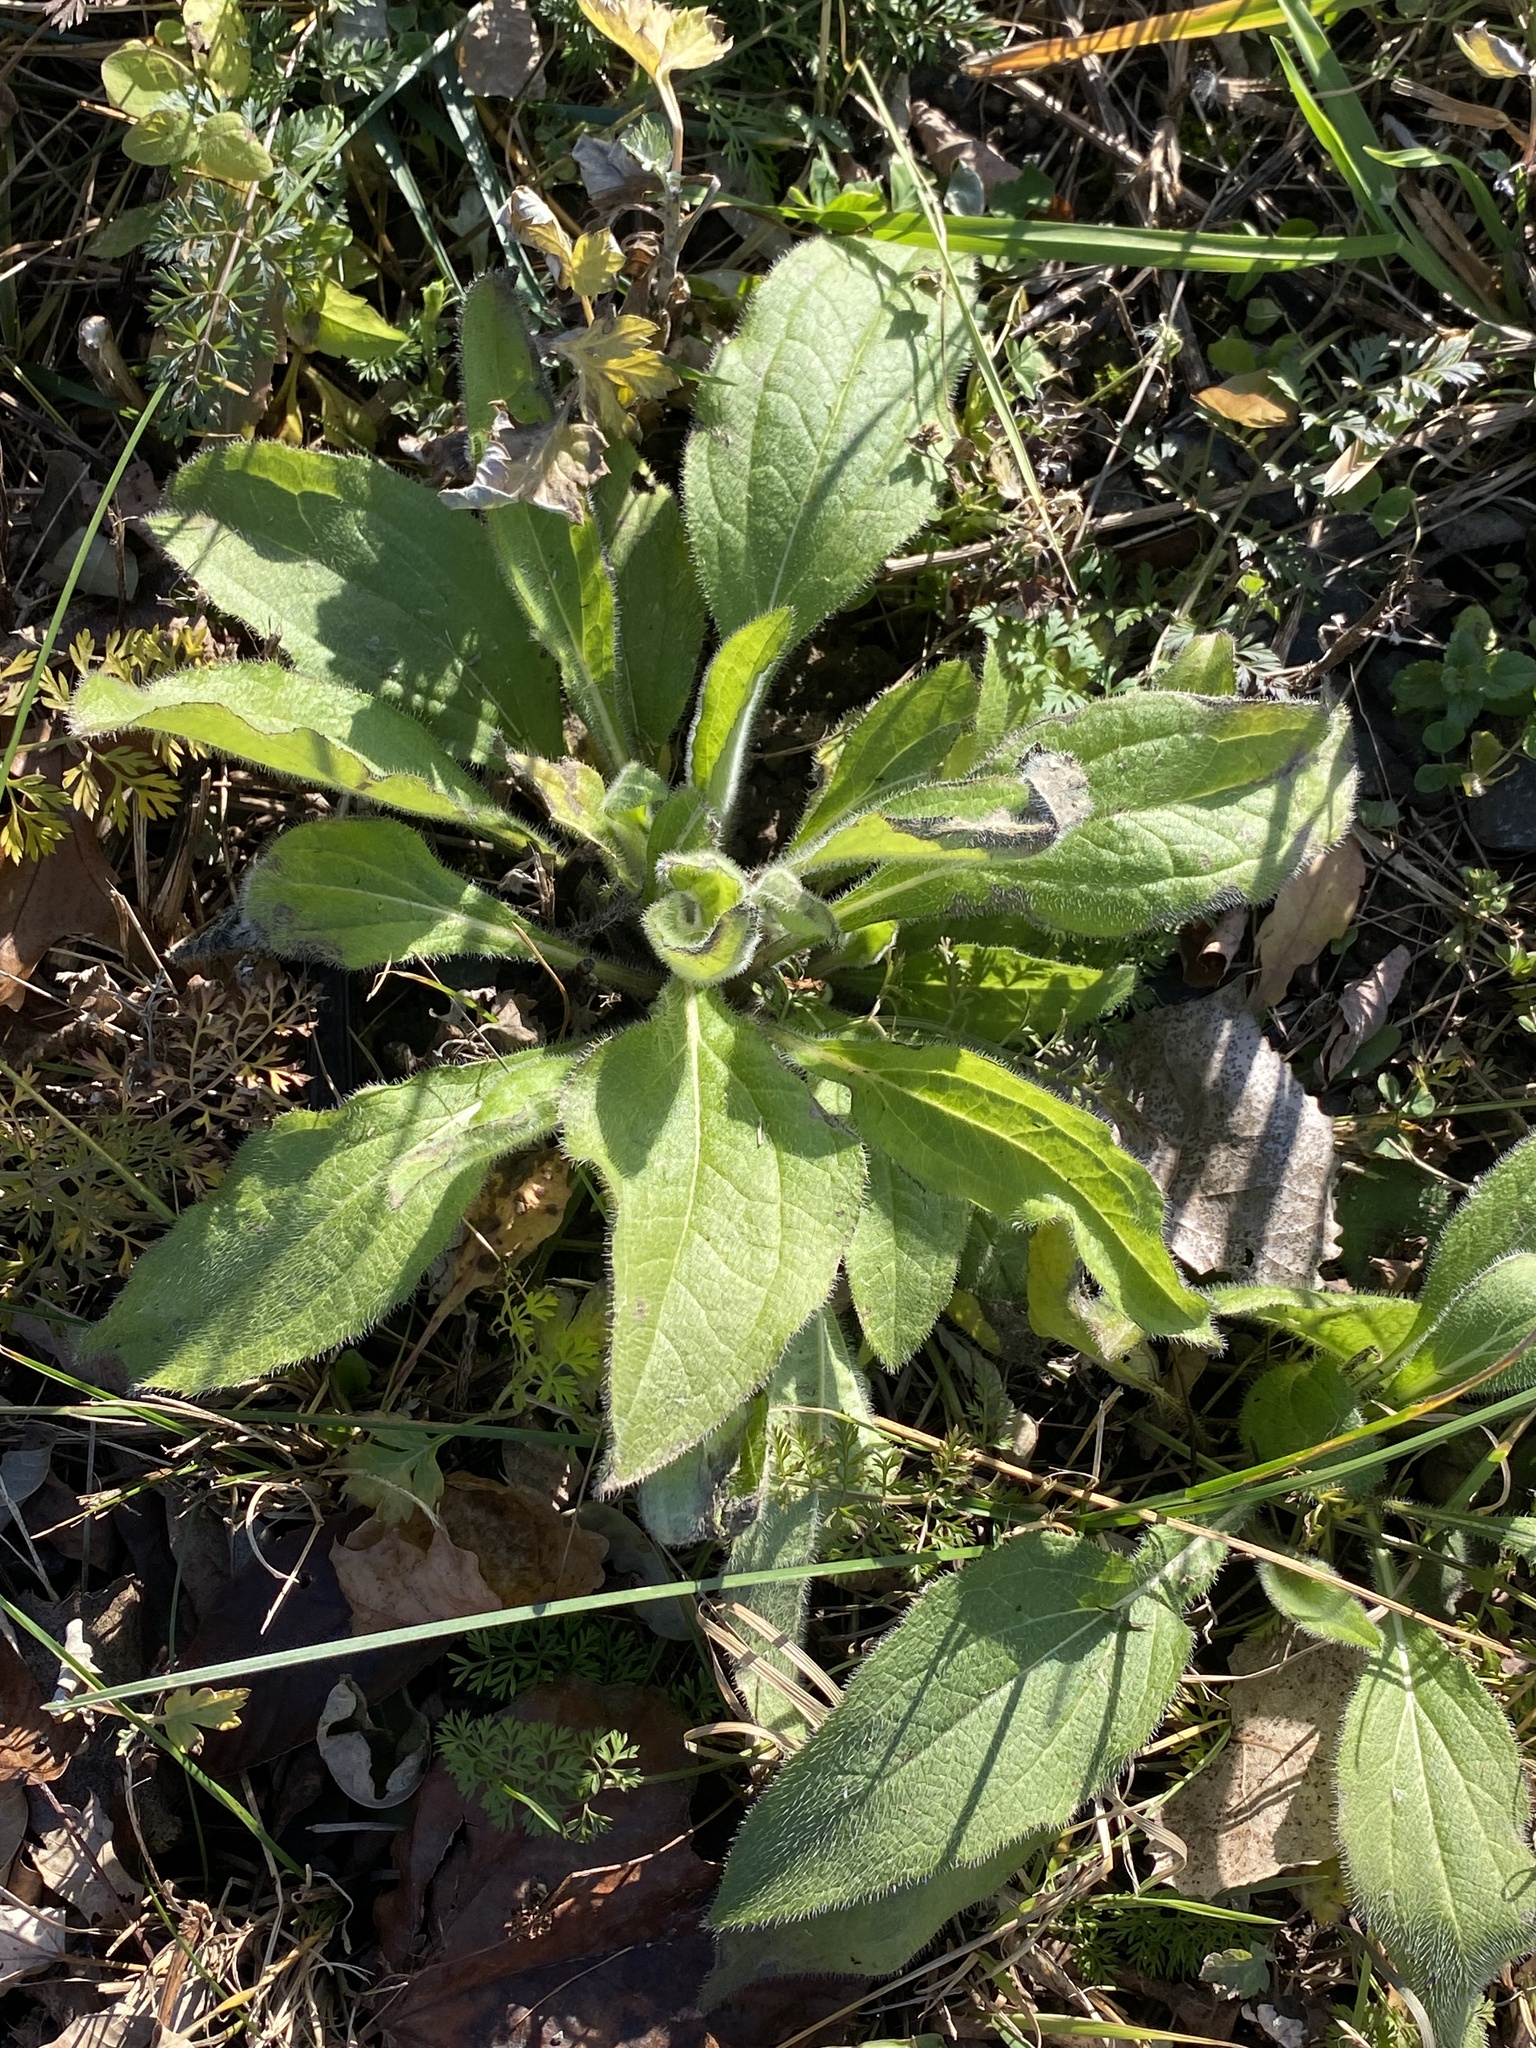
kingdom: Plantae
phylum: Tracheophyta
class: Magnoliopsida
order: Asterales
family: Asteraceae
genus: Rudbeckia
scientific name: Rudbeckia hirta
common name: Black-eyed-susan
